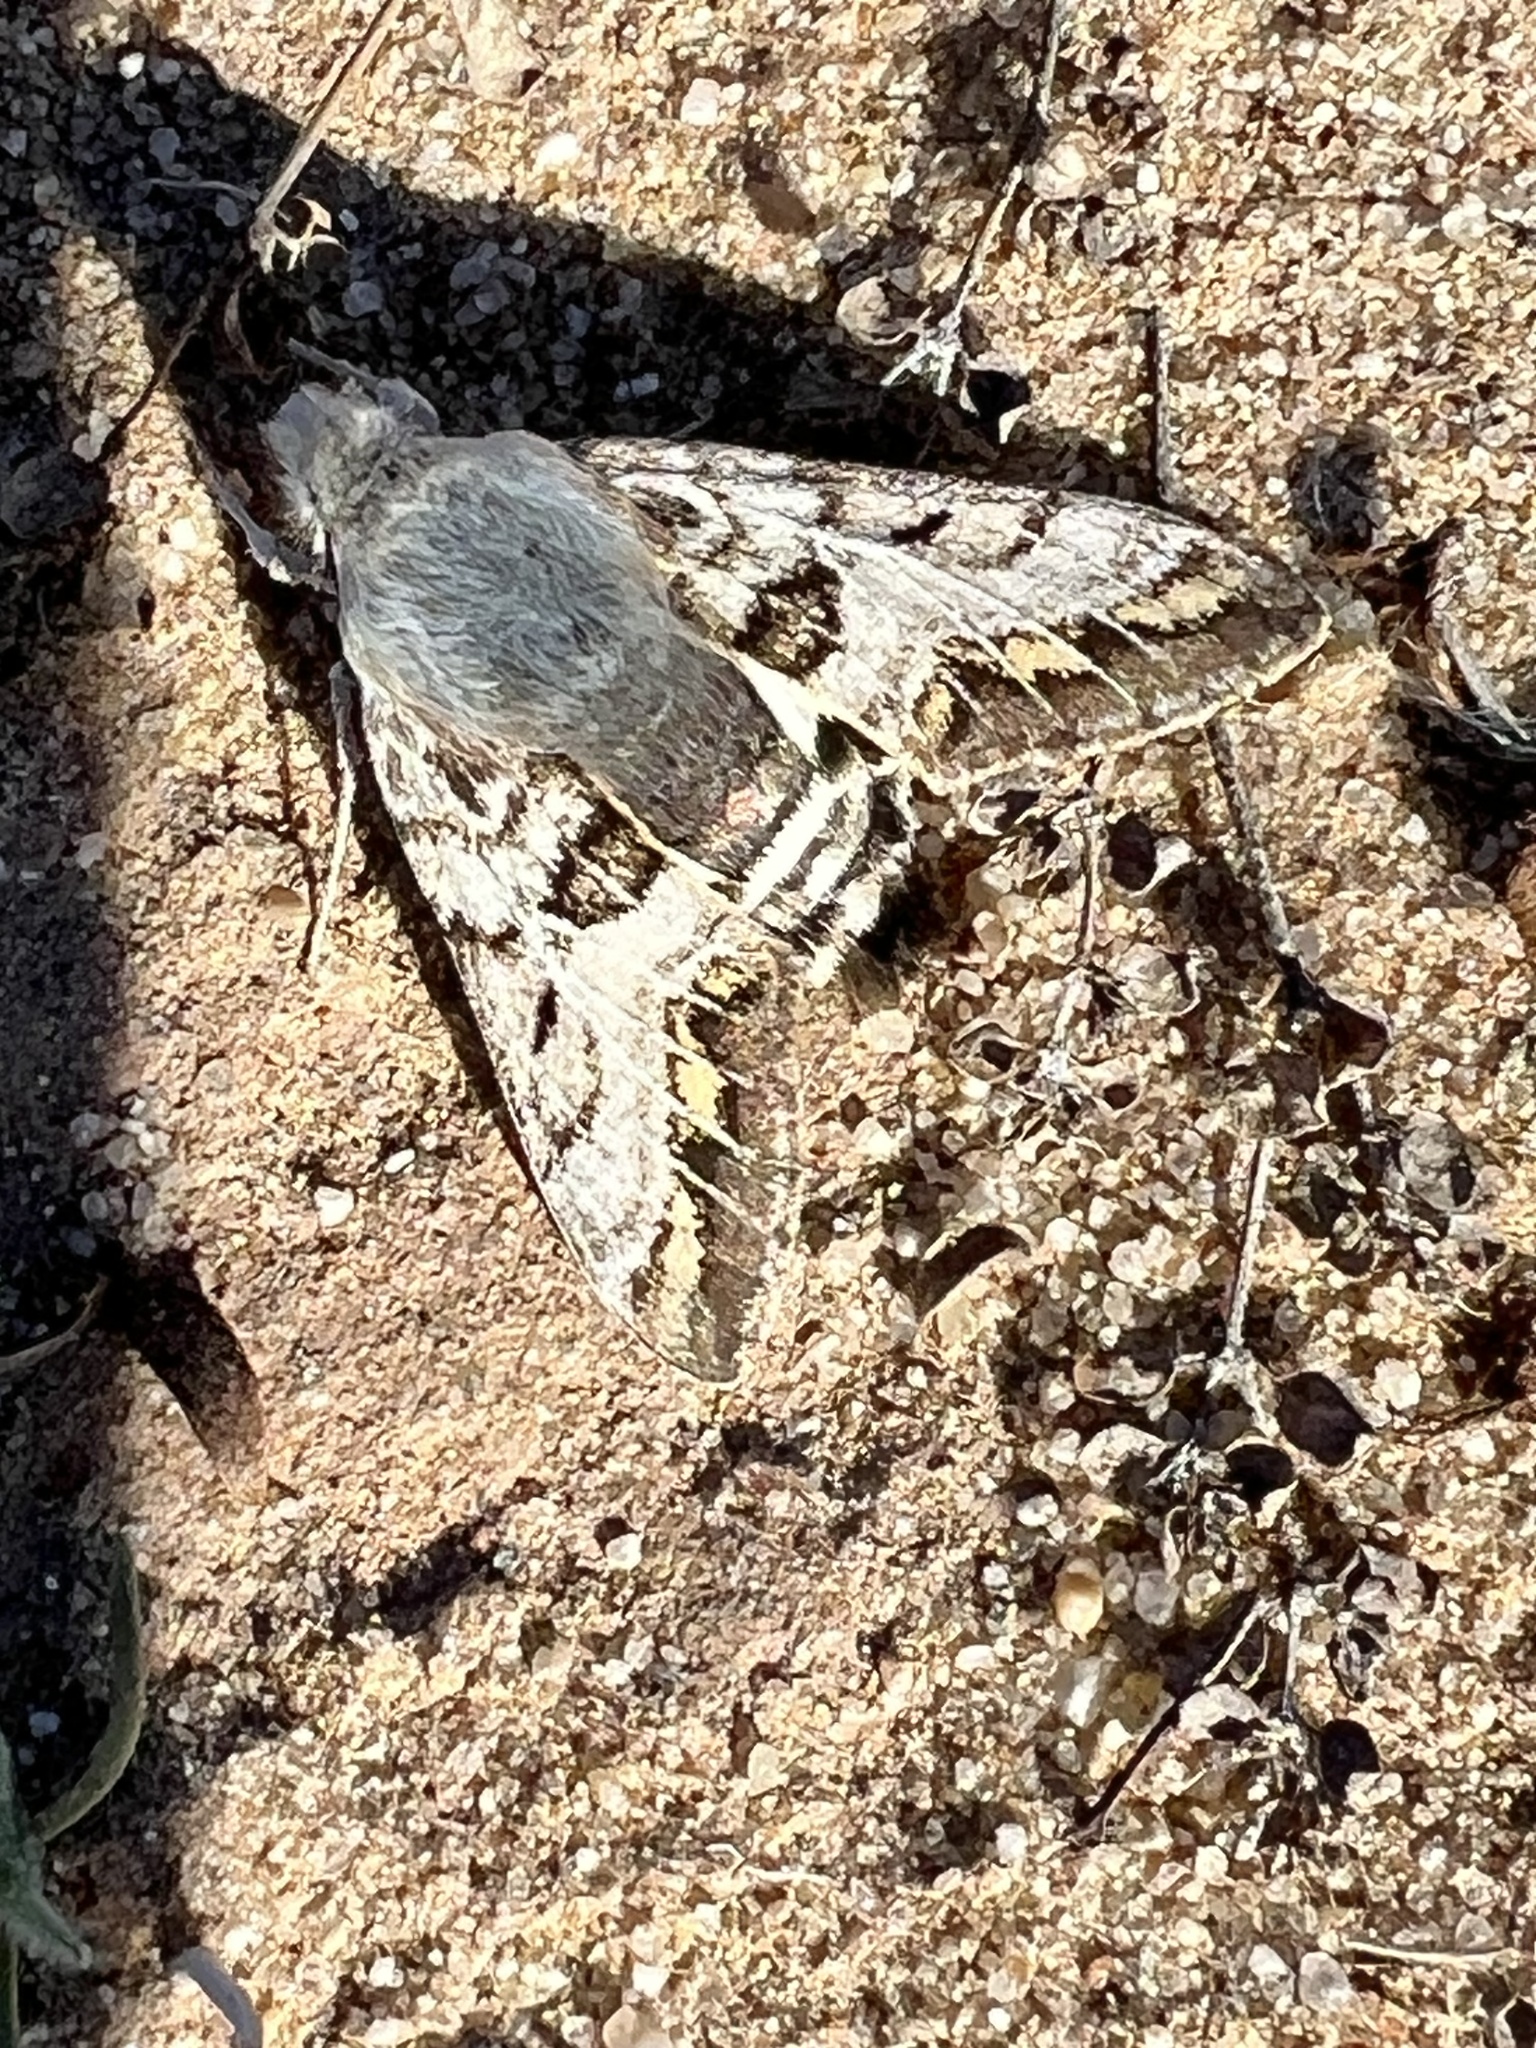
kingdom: Animalia
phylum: Arthropoda
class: Insecta
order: Lepidoptera
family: Sphingidae
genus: Euproserpinus
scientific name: Euproserpinus phaeton
